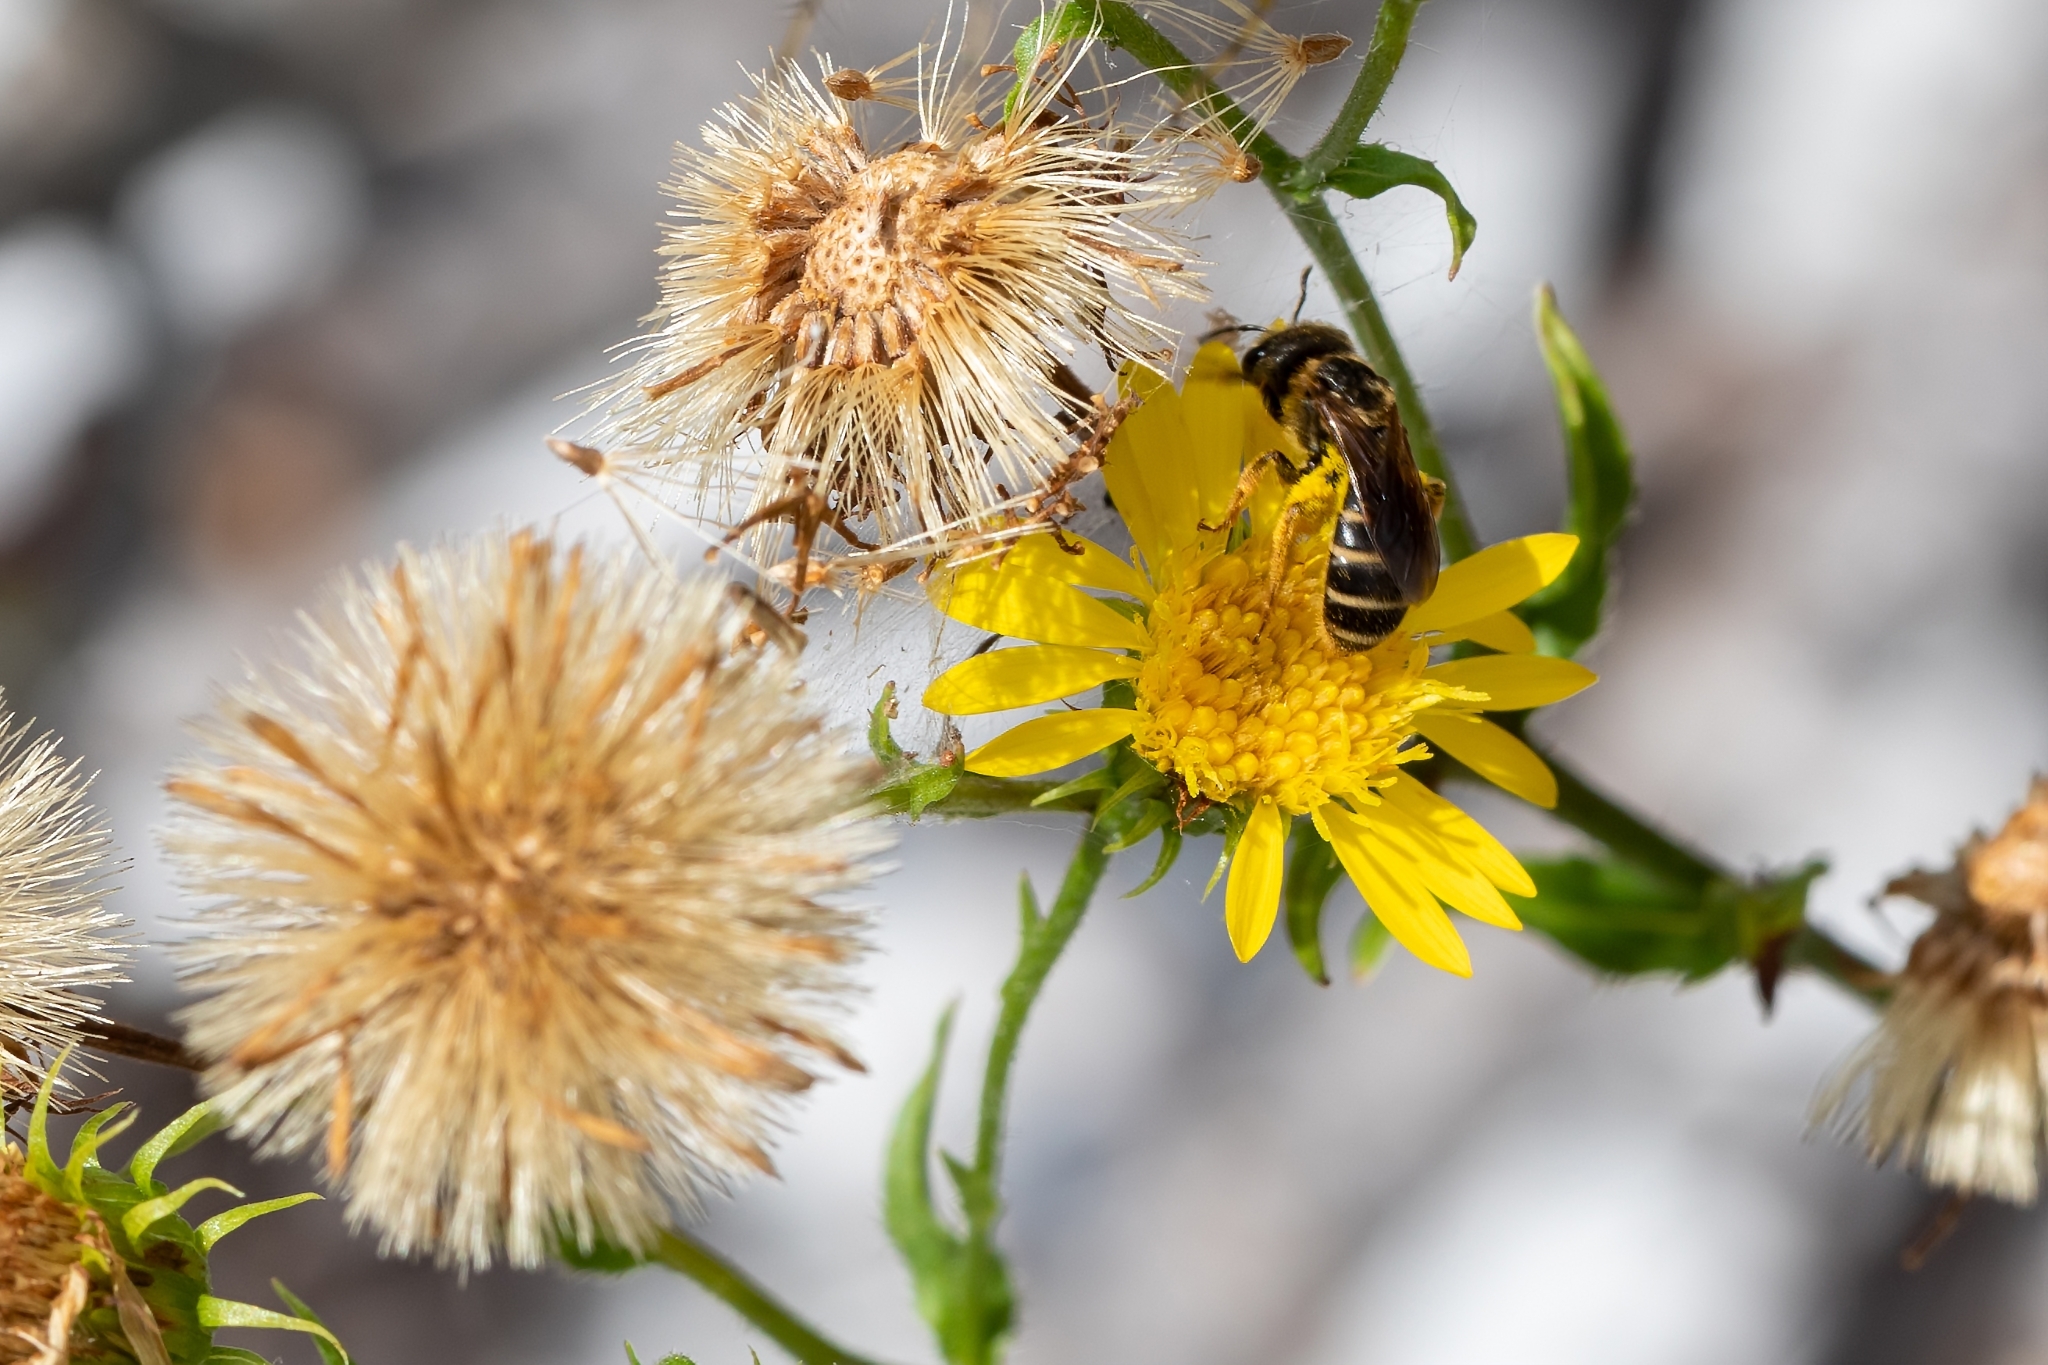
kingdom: Animalia
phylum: Arthropoda
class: Insecta
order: Hymenoptera
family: Halictidae
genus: Halictus
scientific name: Halictus poeyi
